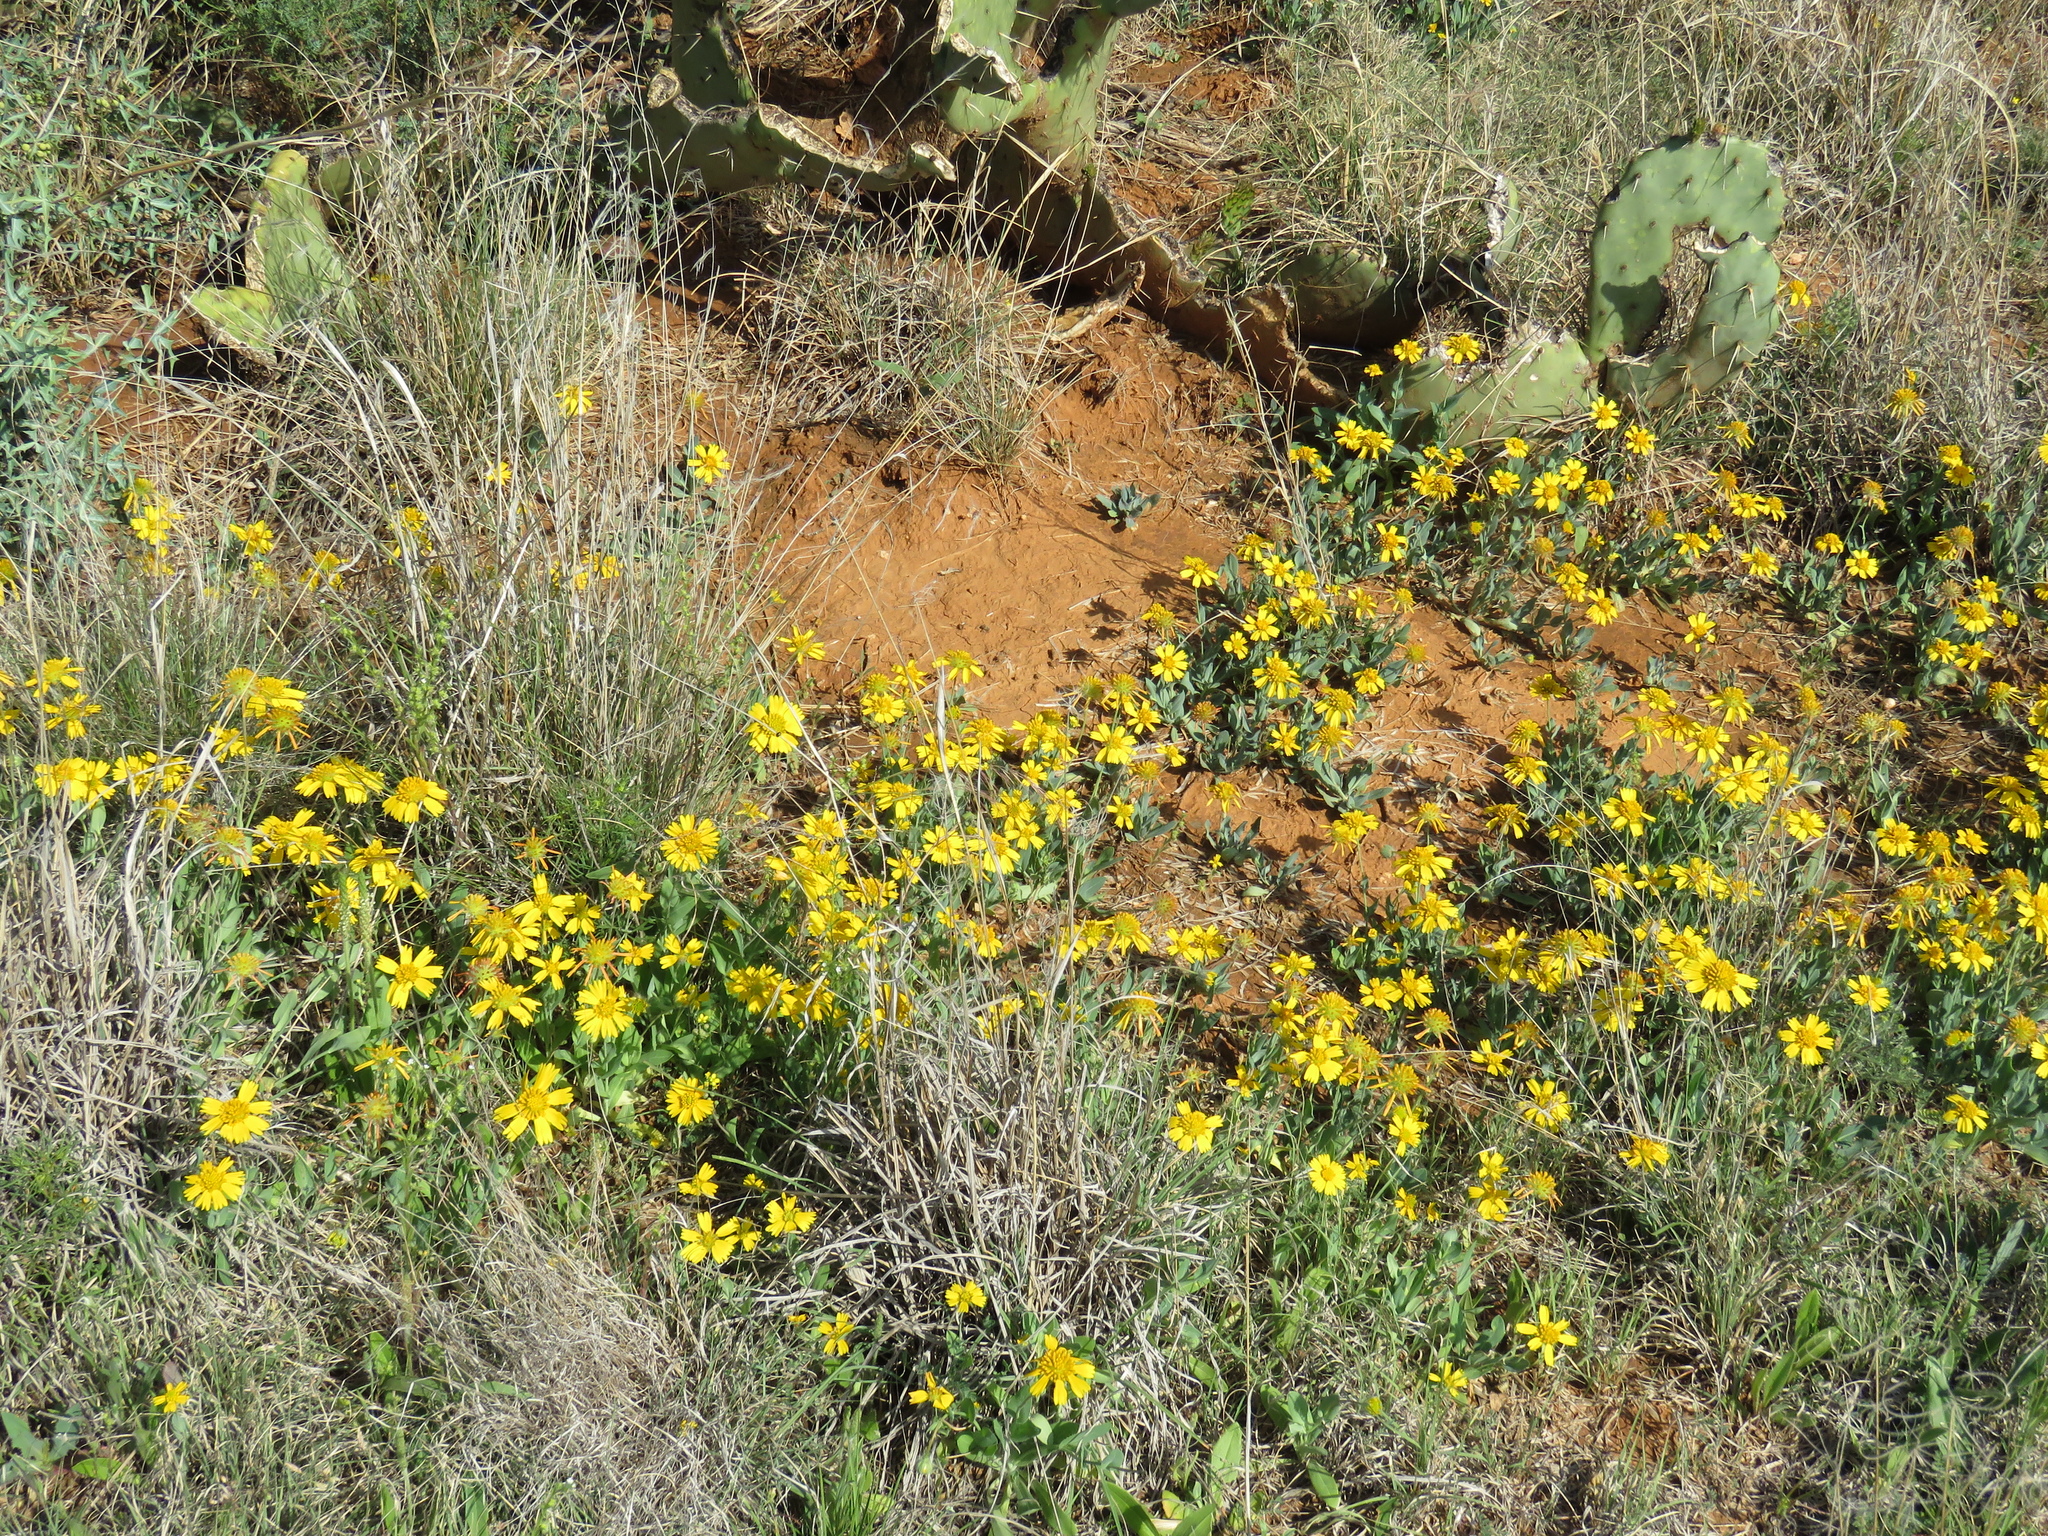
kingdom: Plantae
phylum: Tracheophyta
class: Magnoliopsida
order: Asterales
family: Asteraceae
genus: Amblyolepis
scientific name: Amblyolepis setigera
